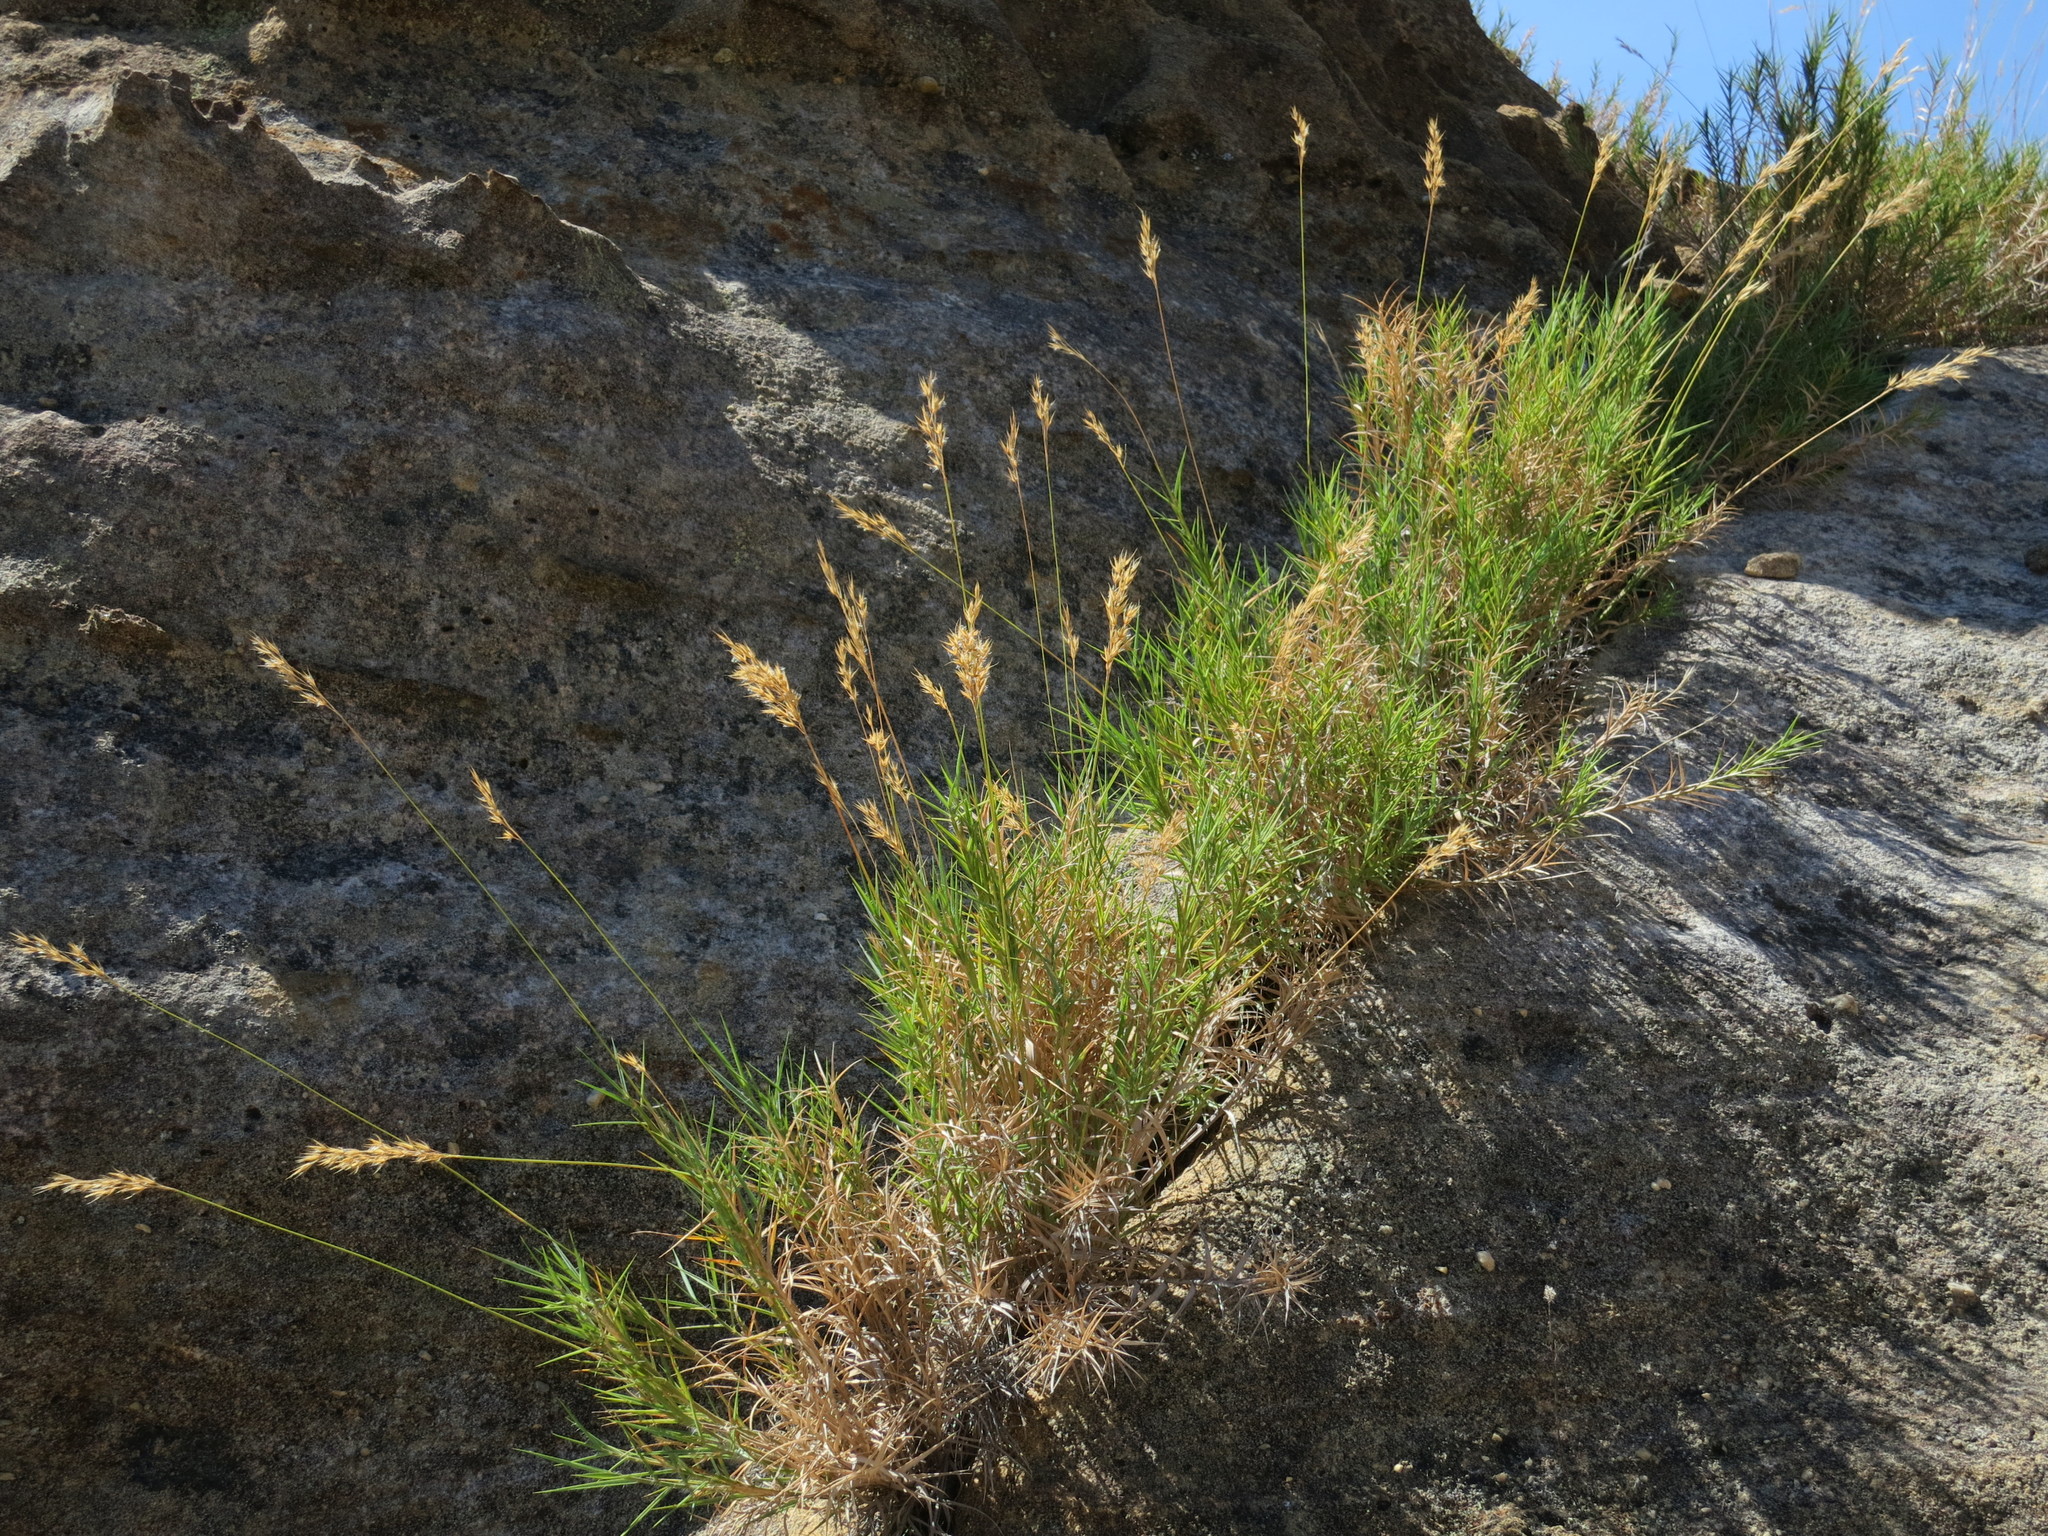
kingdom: Plantae
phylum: Tracheophyta
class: Liliopsida
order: Poales
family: Poaceae
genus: Danthoniopsis
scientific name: Danthoniopsis isalensis
